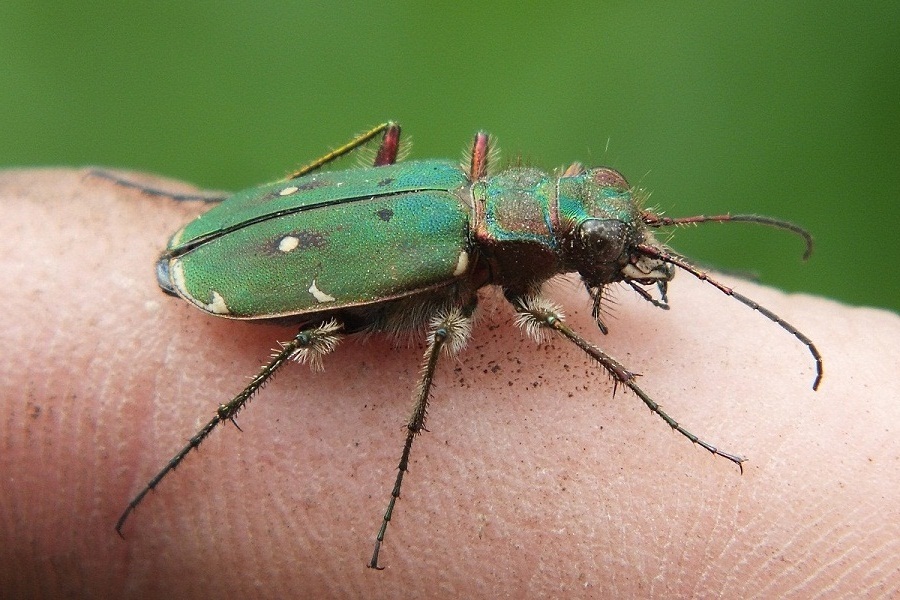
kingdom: Animalia
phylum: Arthropoda
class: Insecta
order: Coleoptera
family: Carabidae
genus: Cicindela
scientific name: Cicindela campestris
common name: Common tiger beetle
